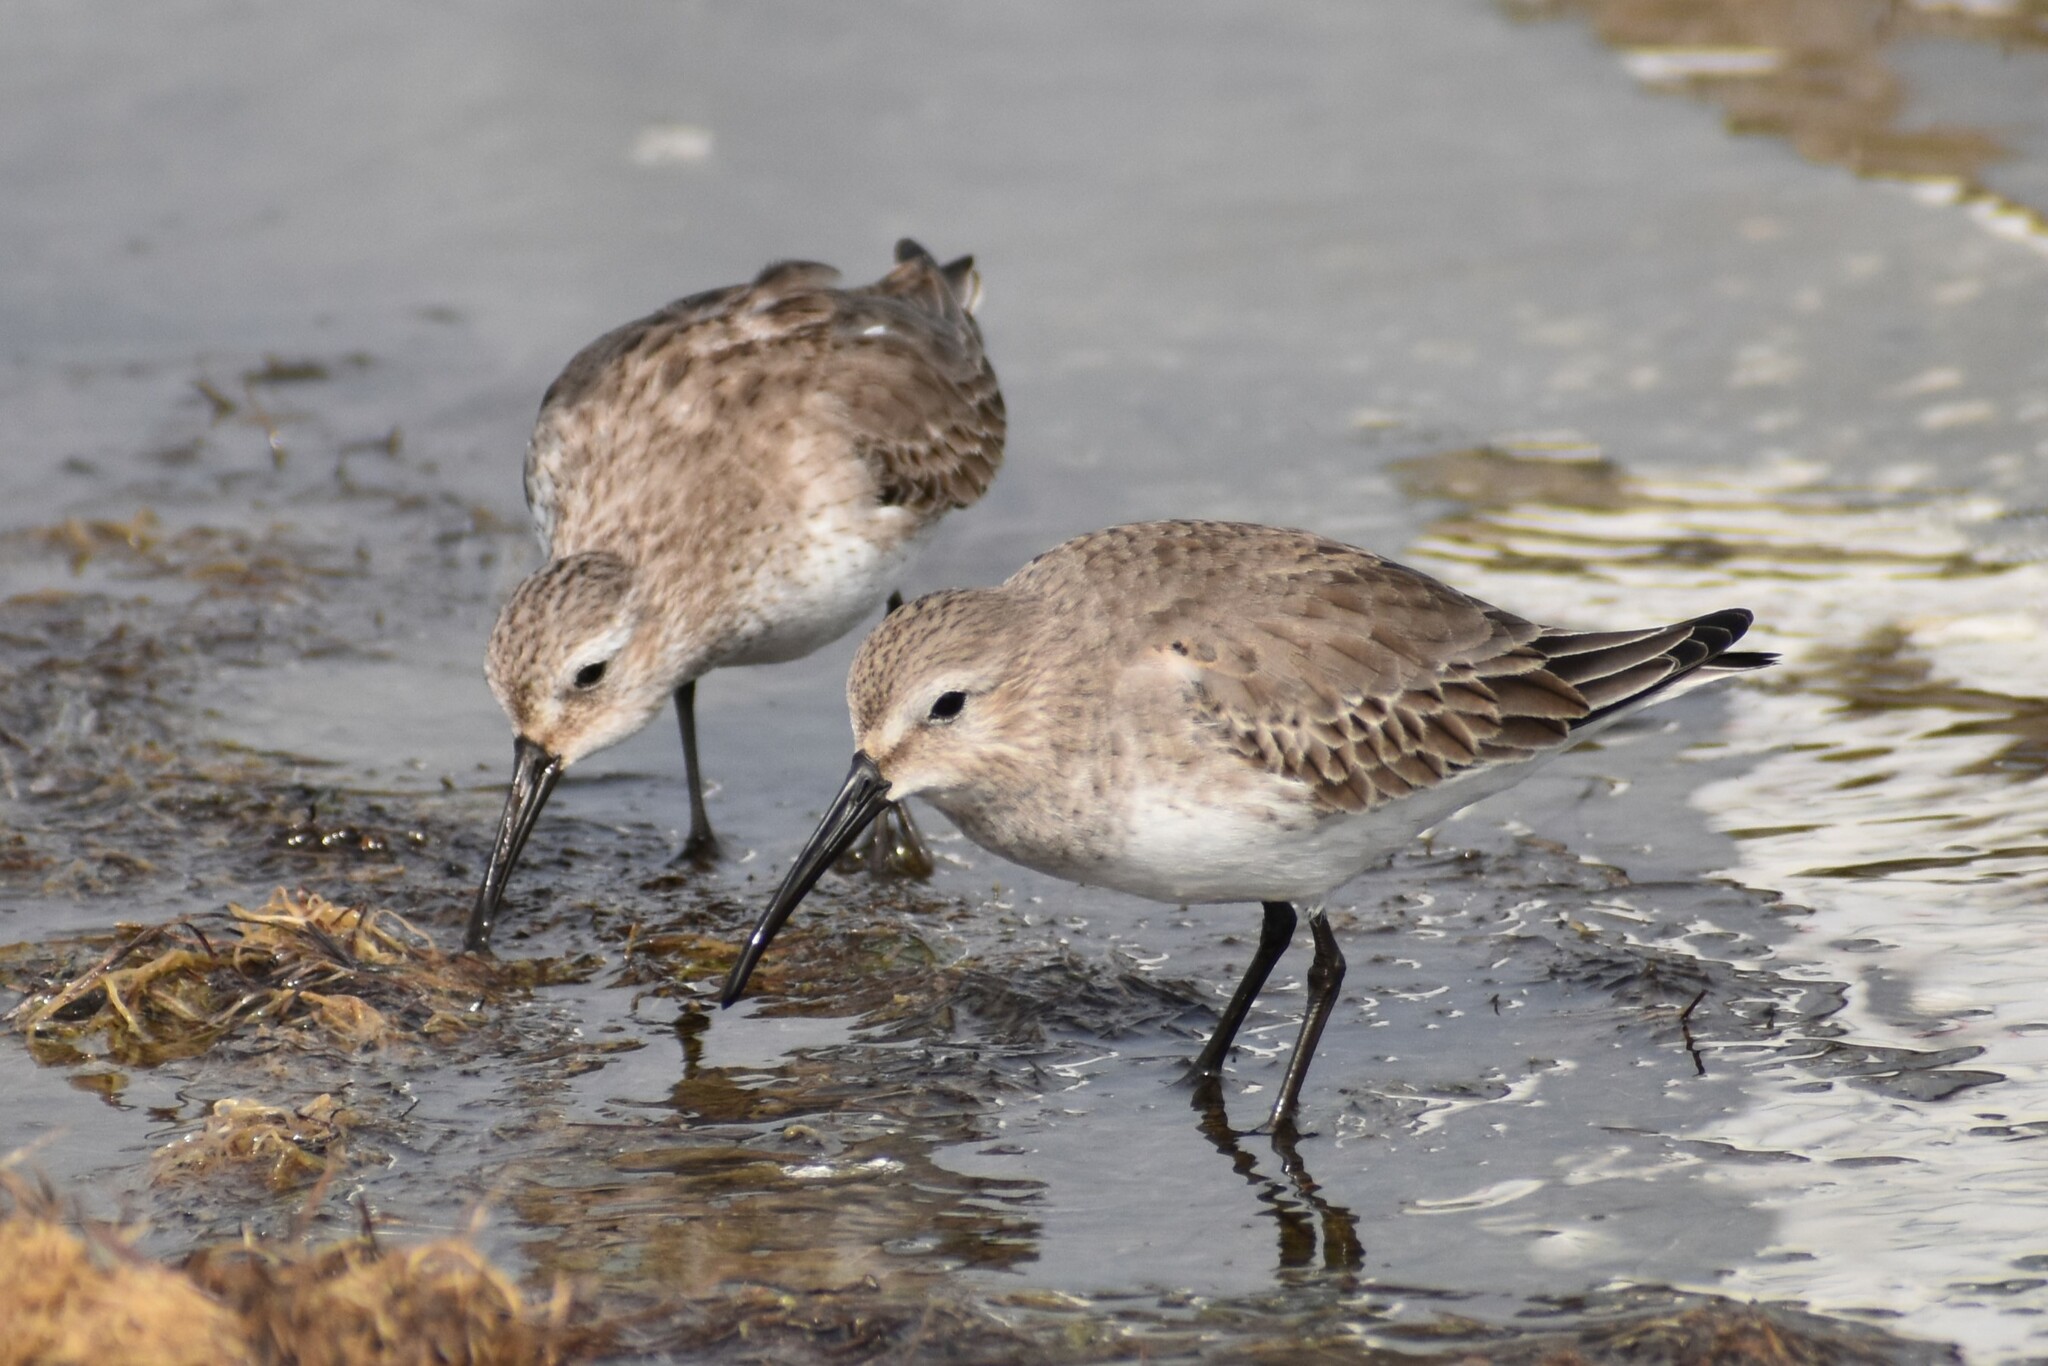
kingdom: Animalia
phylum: Chordata
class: Aves
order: Charadriiformes
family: Scolopacidae
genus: Calidris
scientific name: Calidris alpina
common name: Dunlin
